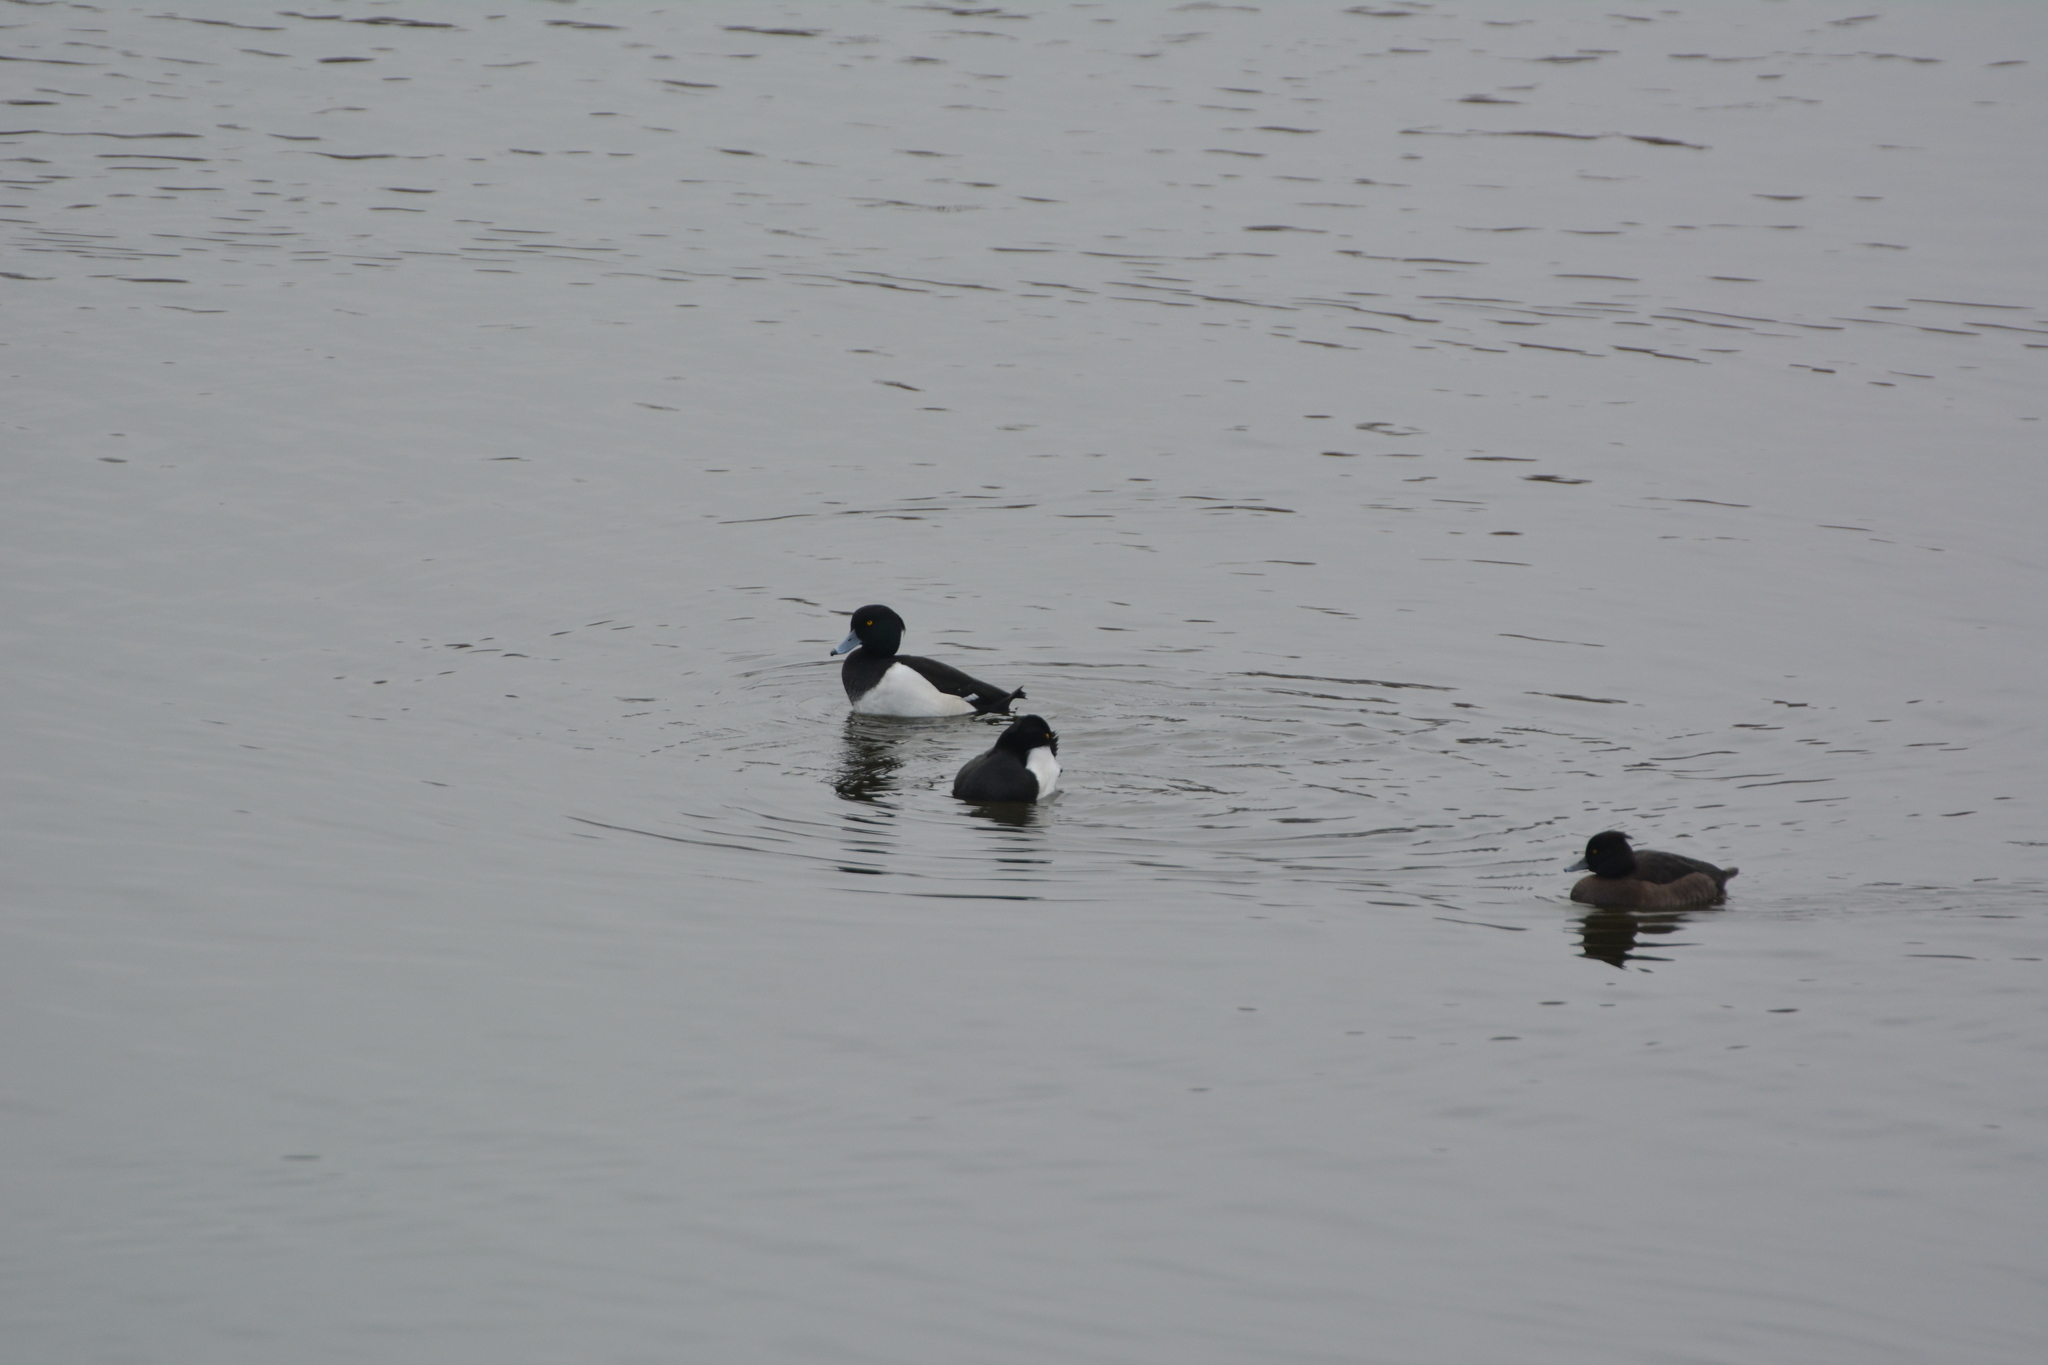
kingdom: Animalia
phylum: Chordata
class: Aves
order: Anseriformes
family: Anatidae
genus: Aythya
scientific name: Aythya fuligula
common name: Tufted duck
